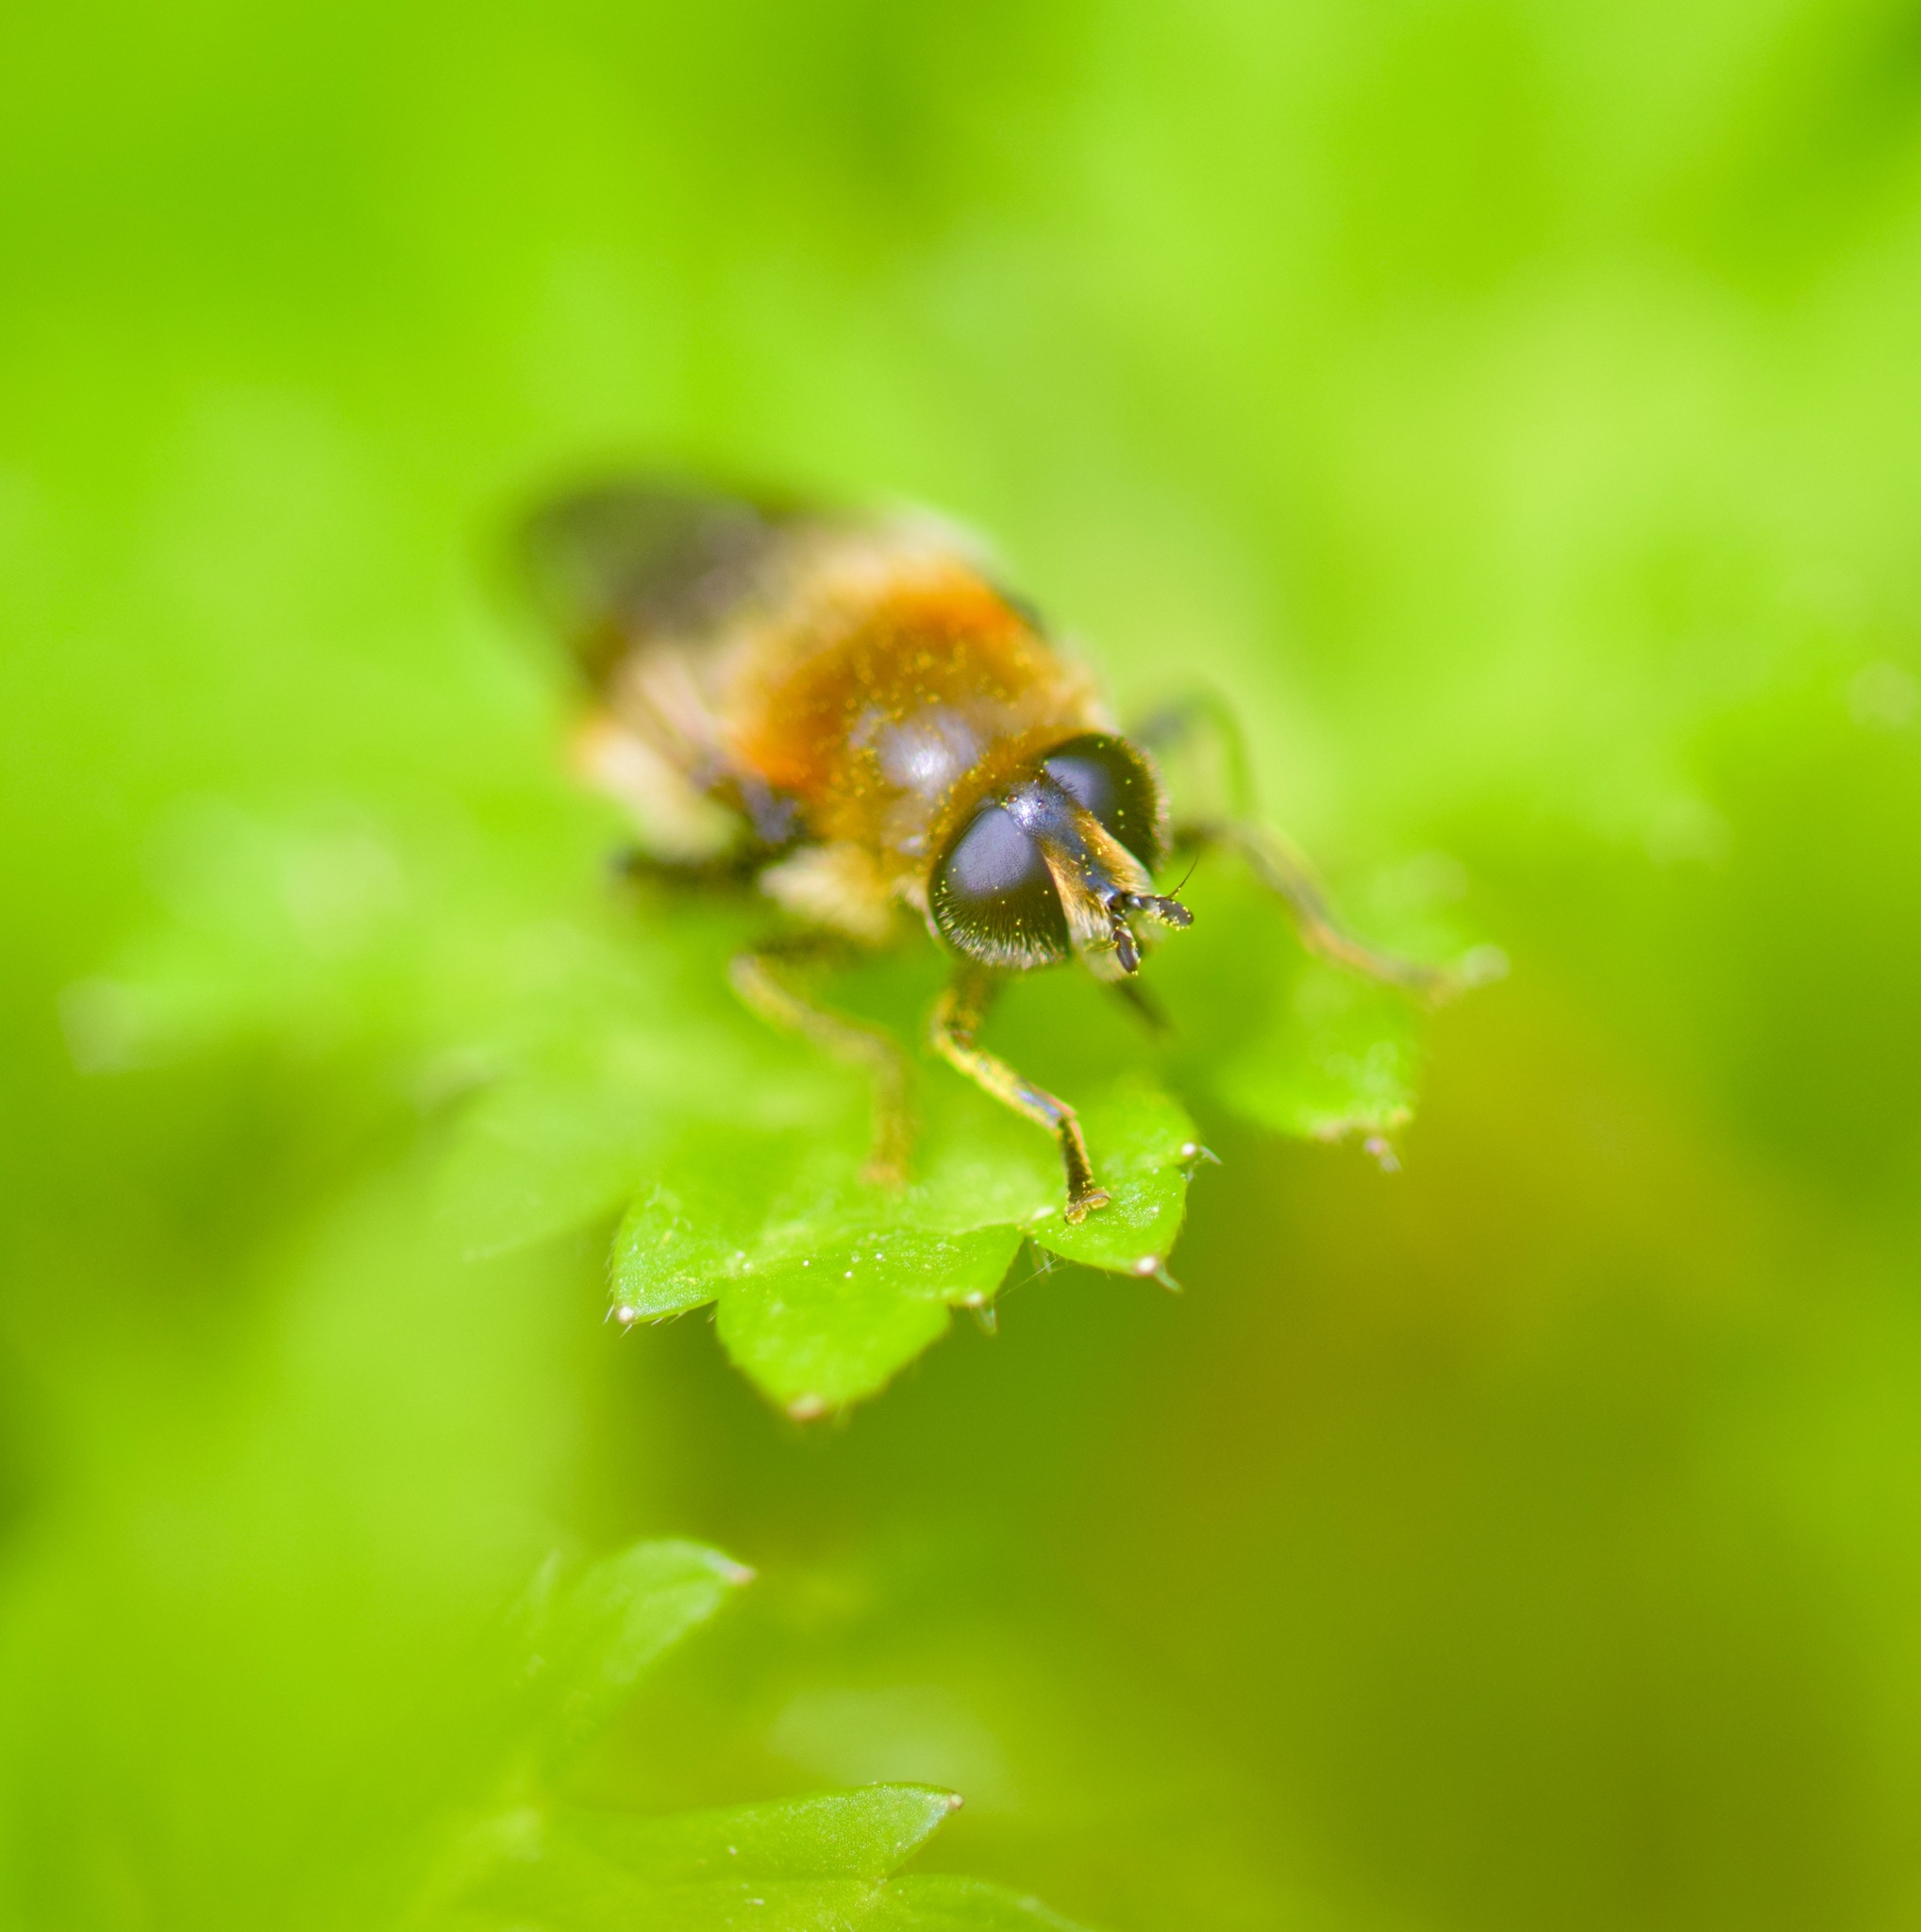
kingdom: Animalia
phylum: Arthropoda
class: Insecta
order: Diptera
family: Syrphidae
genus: Merodon
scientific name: Merodon equestris
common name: Greater bulb-fly
